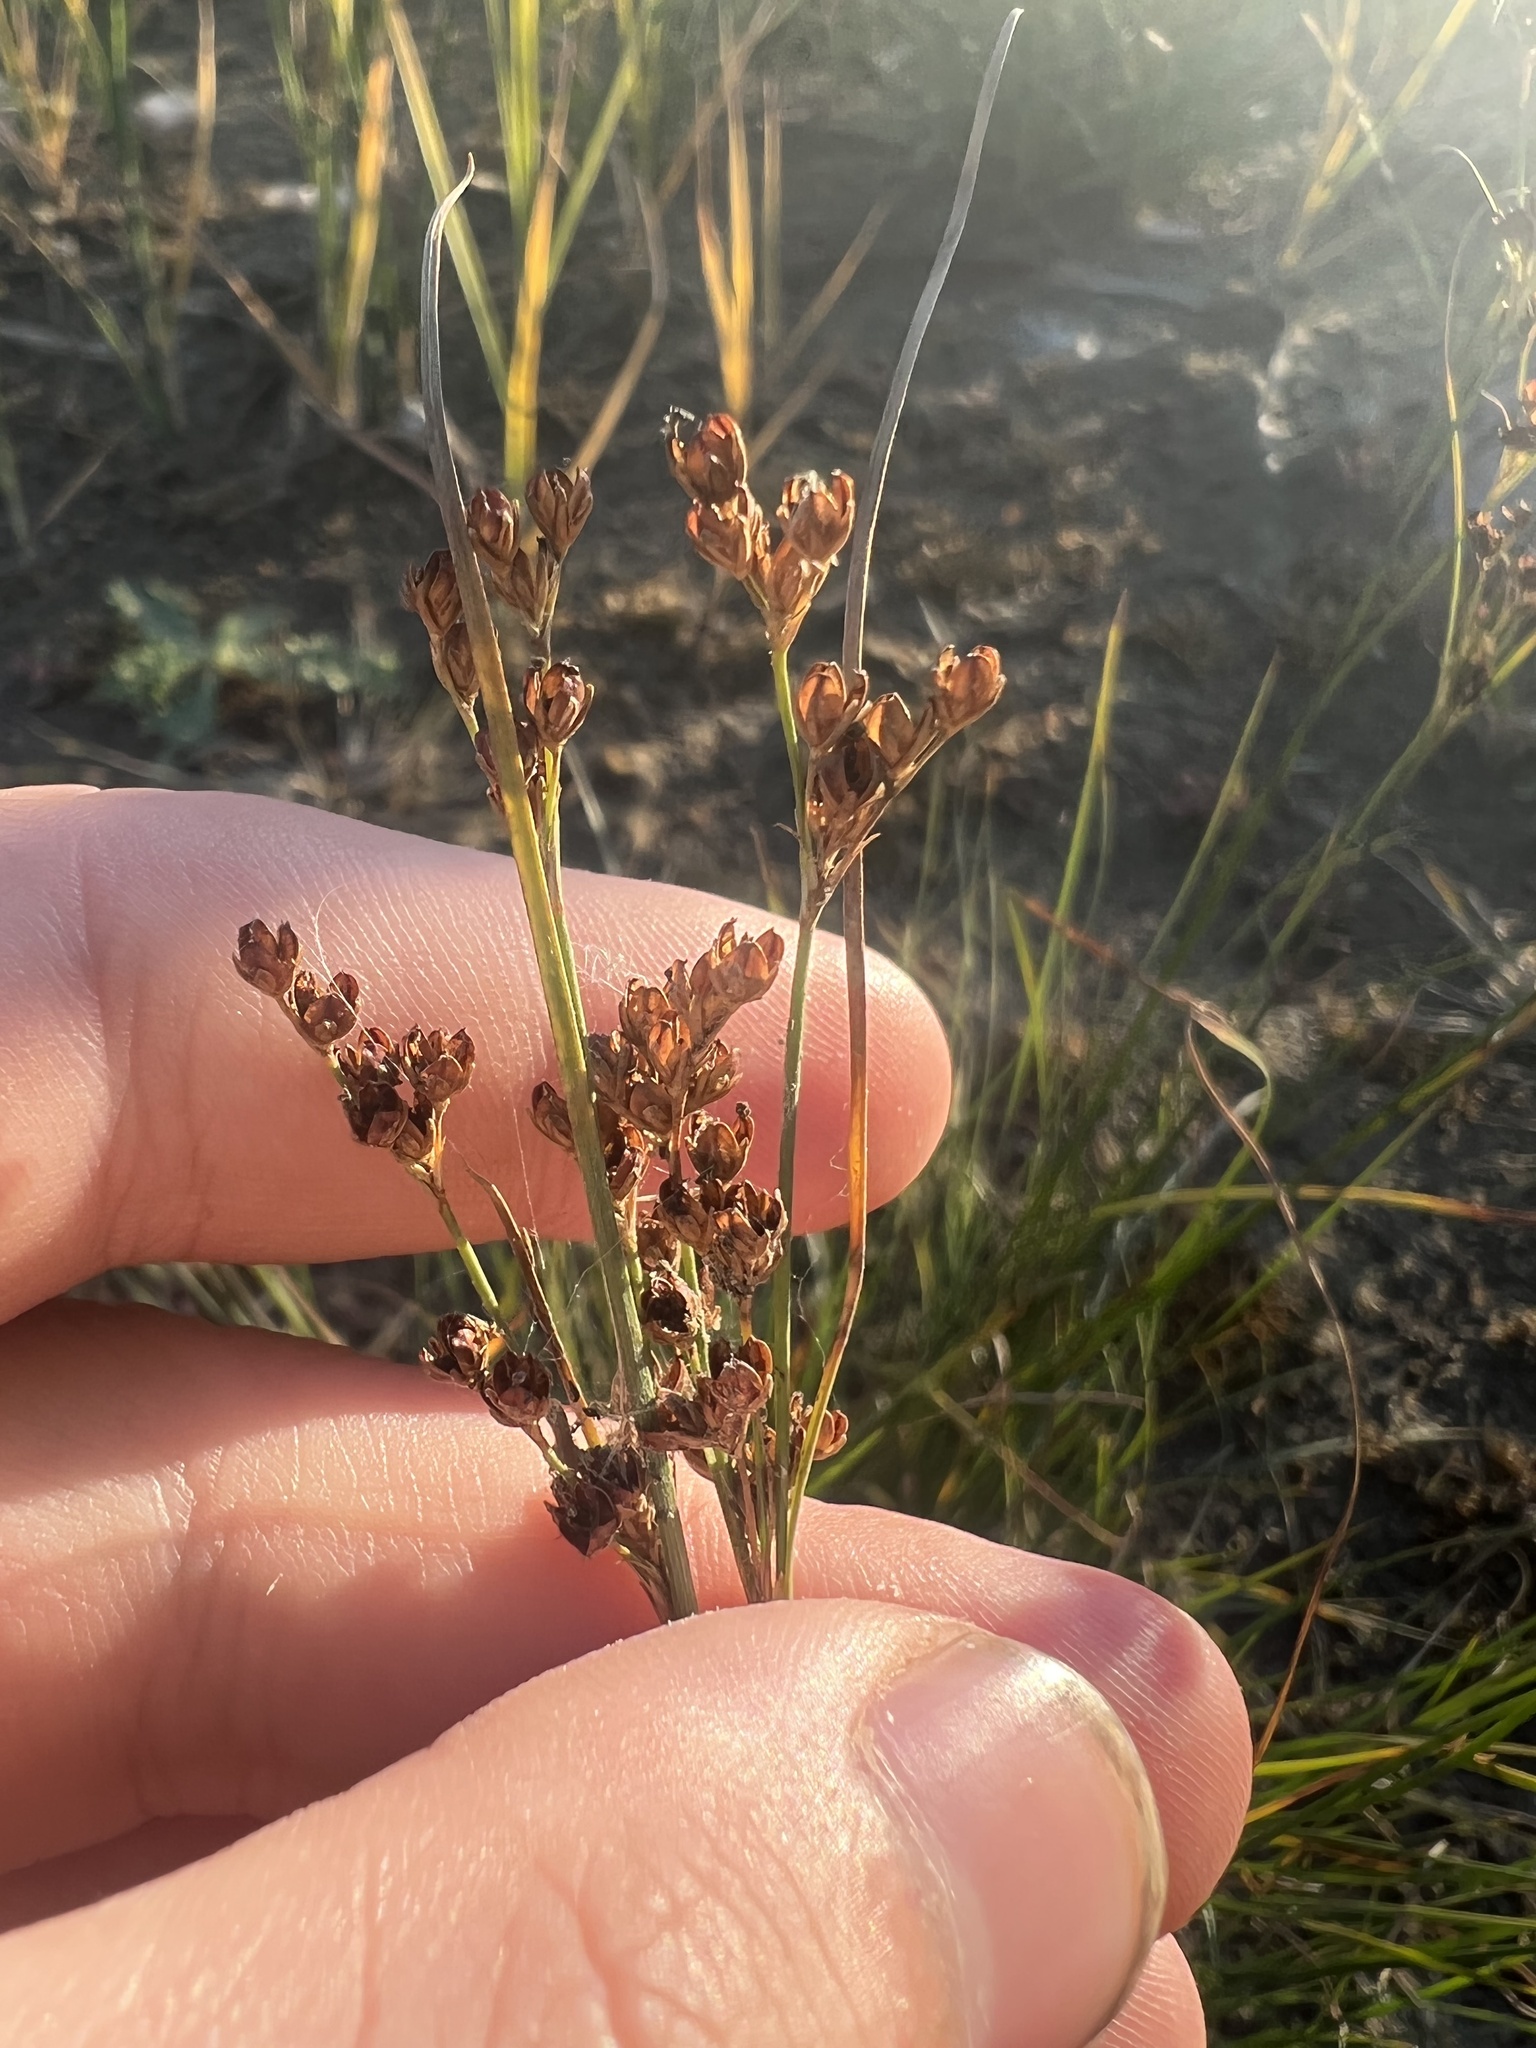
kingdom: Plantae
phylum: Tracheophyta
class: Liliopsida
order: Poales
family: Juncaceae
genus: Juncus
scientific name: Juncus compressus
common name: Round-fruited rush
